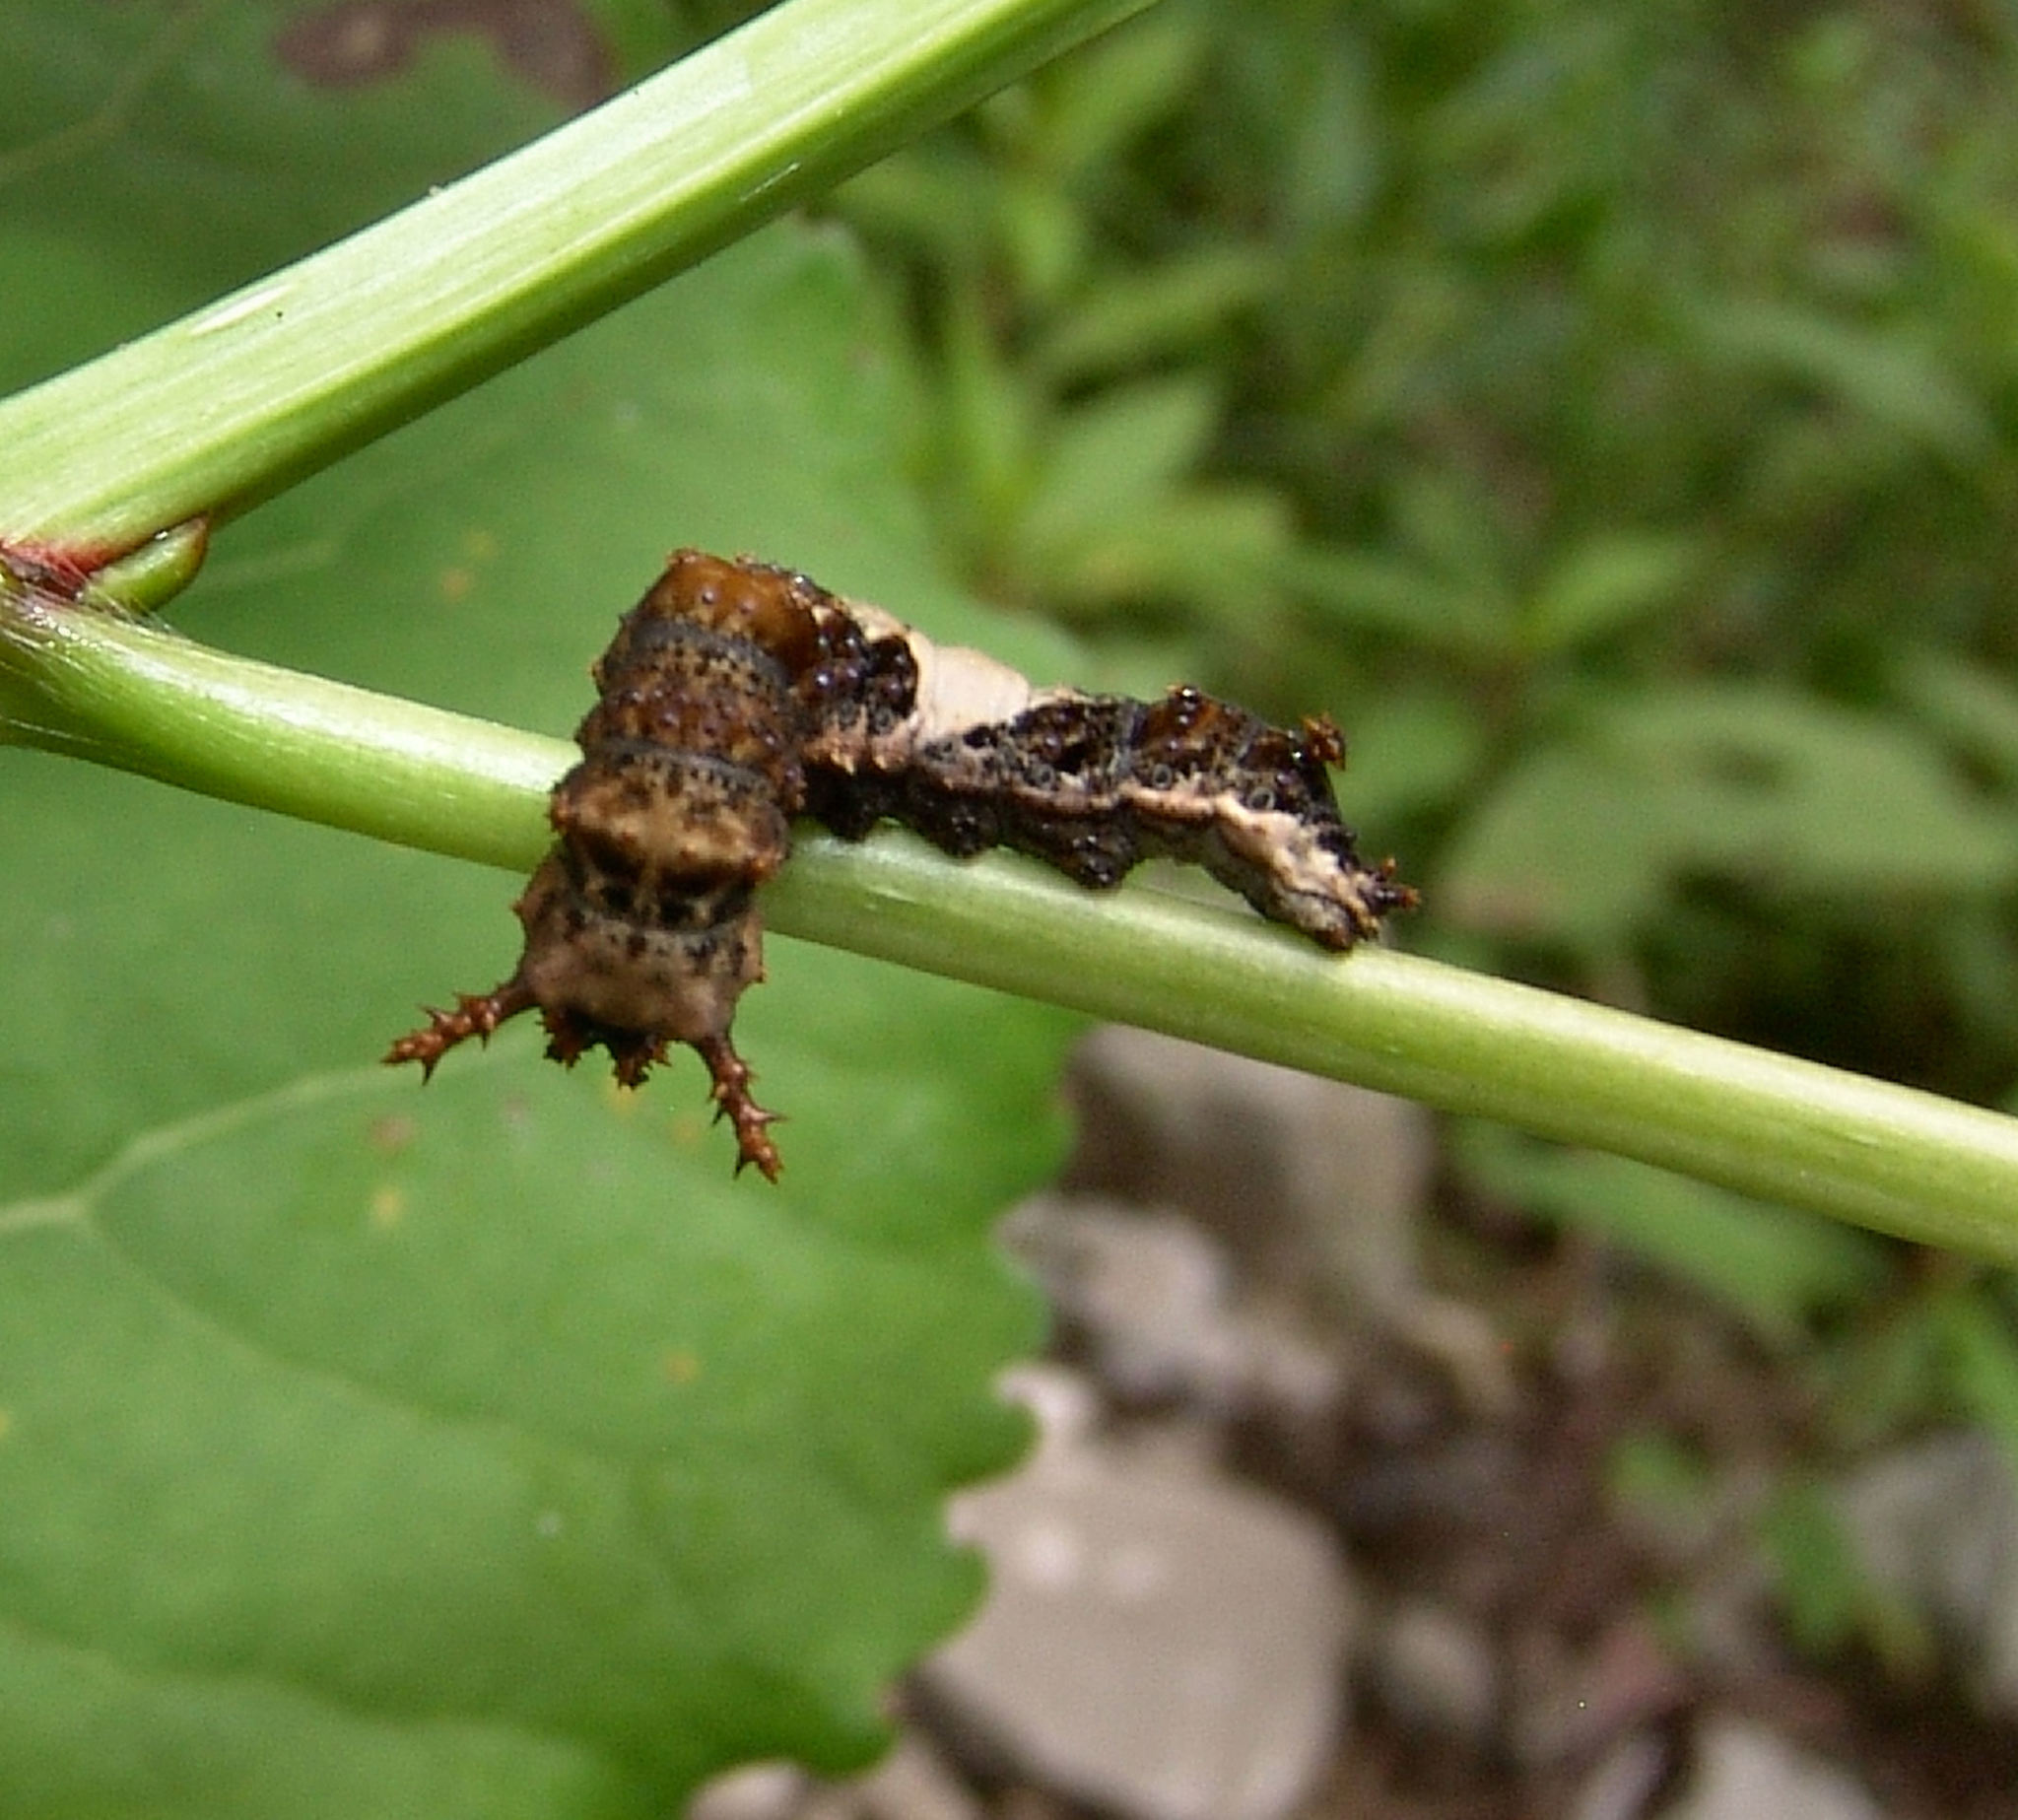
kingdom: Animalia
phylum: Arthropoda
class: Insecta
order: Lepidoptera
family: Nymphalidae
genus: Limenitis
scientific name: Limenitis archippus
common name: Viceroy
